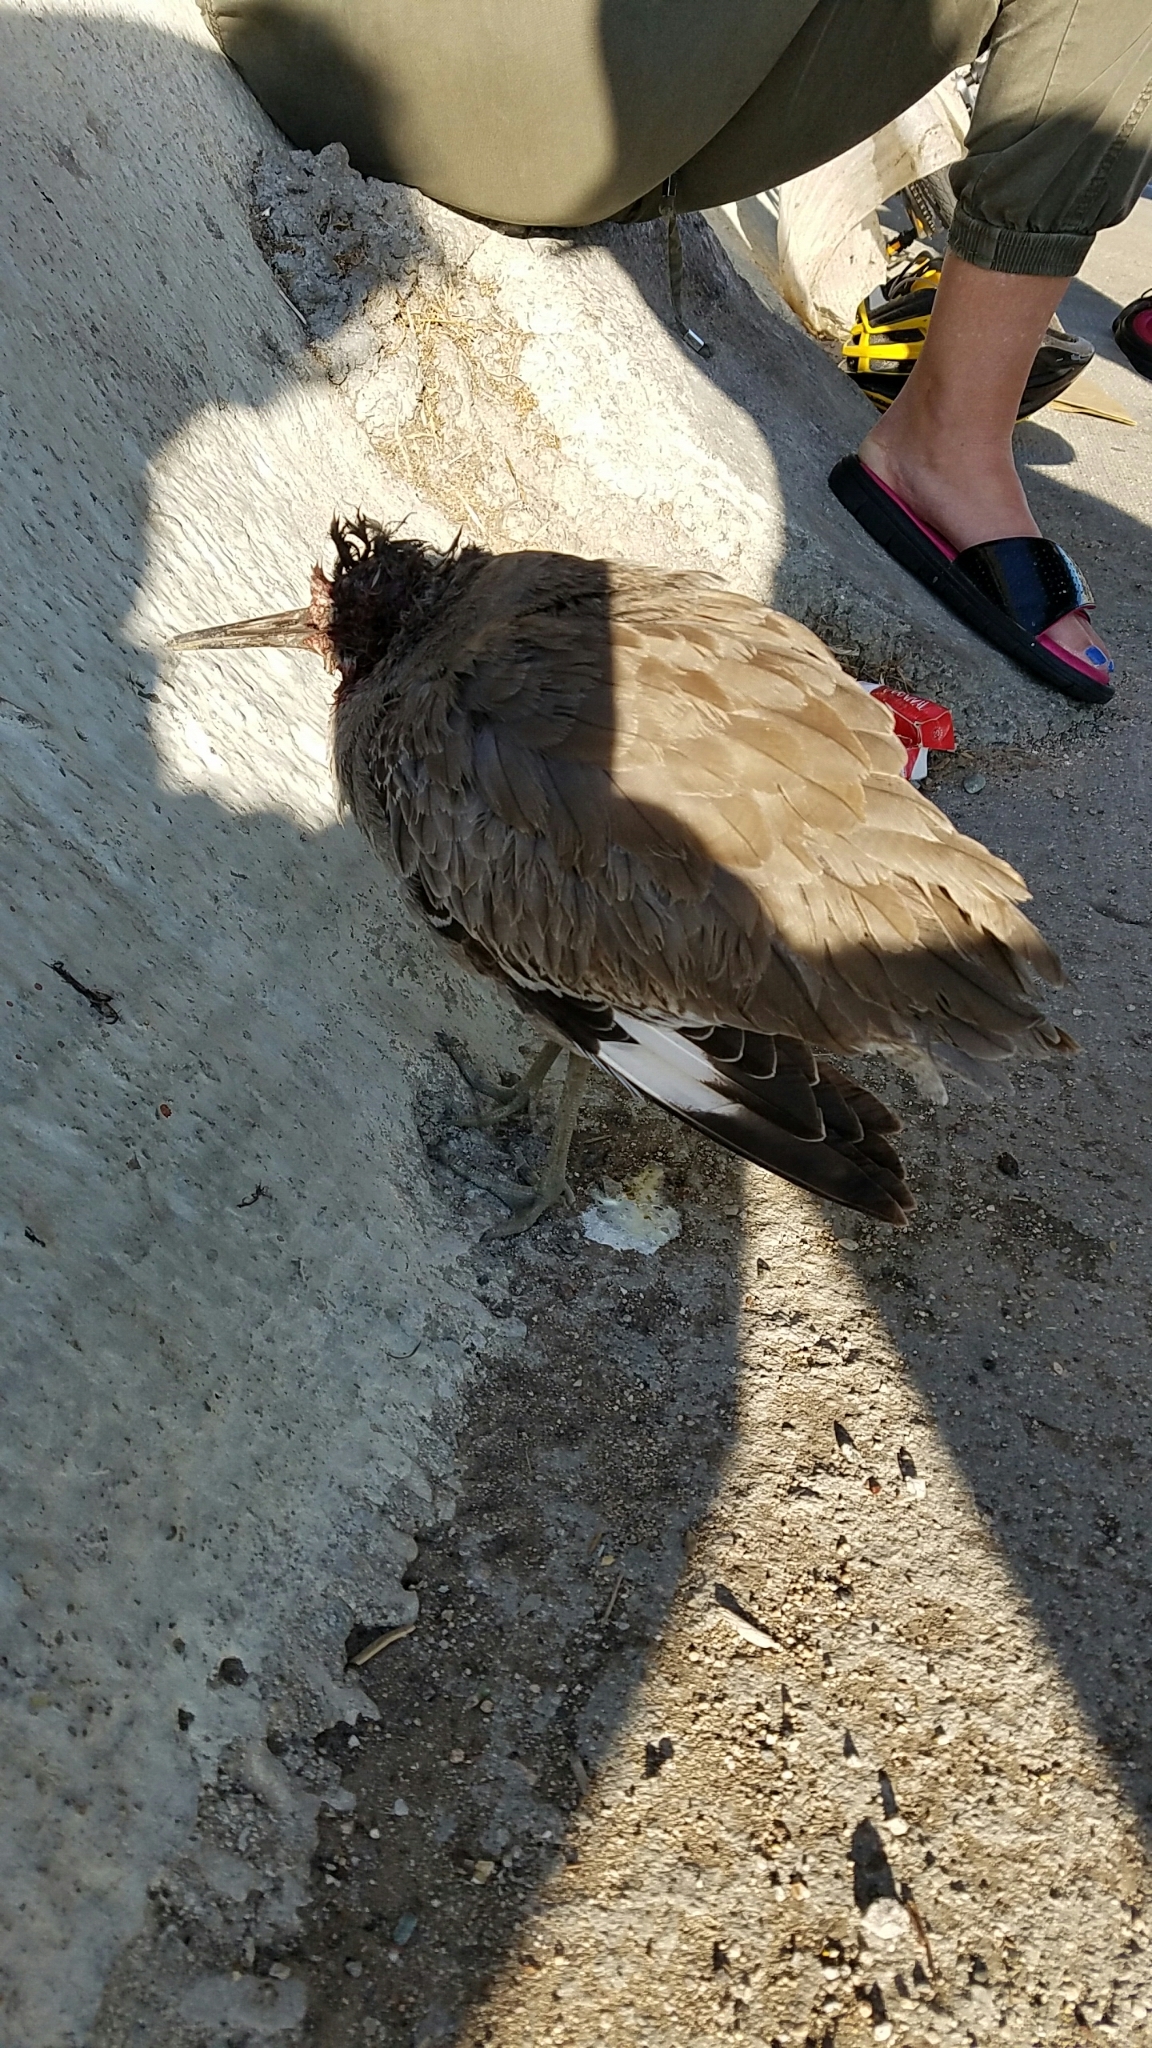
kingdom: Animalia
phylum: Chordata
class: Aves
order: Charadriiformes
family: Scolopacidae
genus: Tringa
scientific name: Tringa semipalmata
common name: Willet
